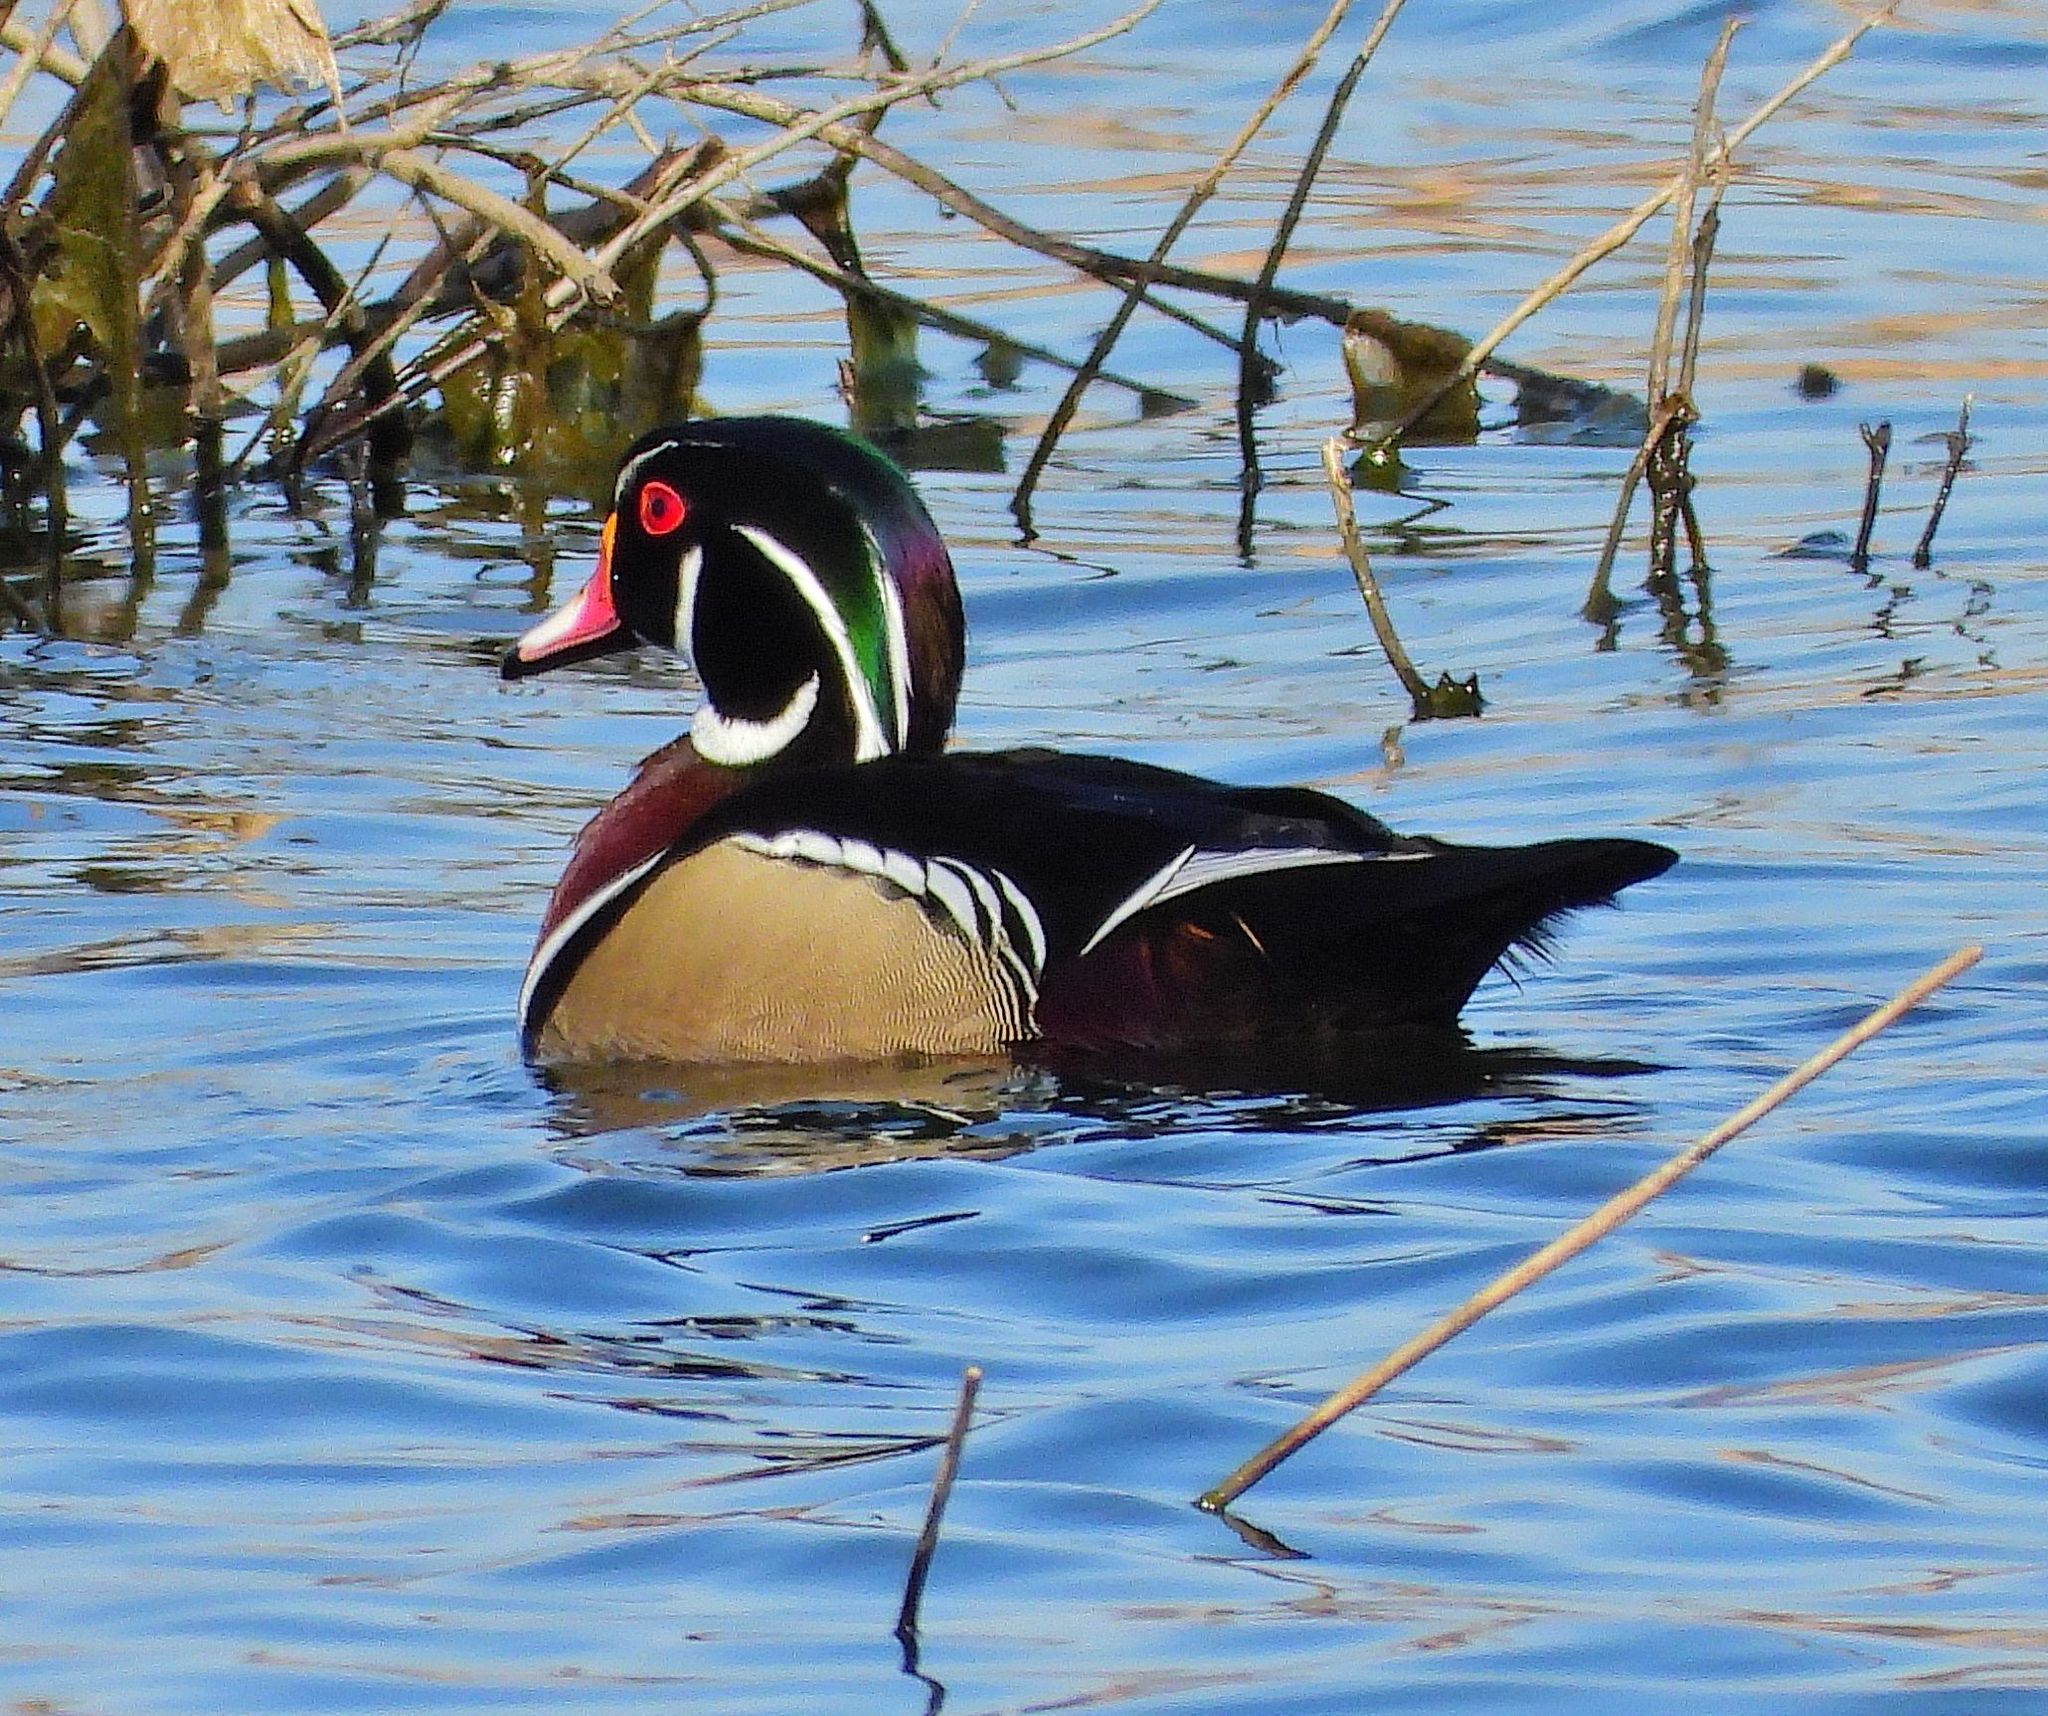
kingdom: Animalia
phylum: Chordata
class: Aves
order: Anseriformes
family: Anatidae
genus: Aix
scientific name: Aix sponsa
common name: Wood duck
